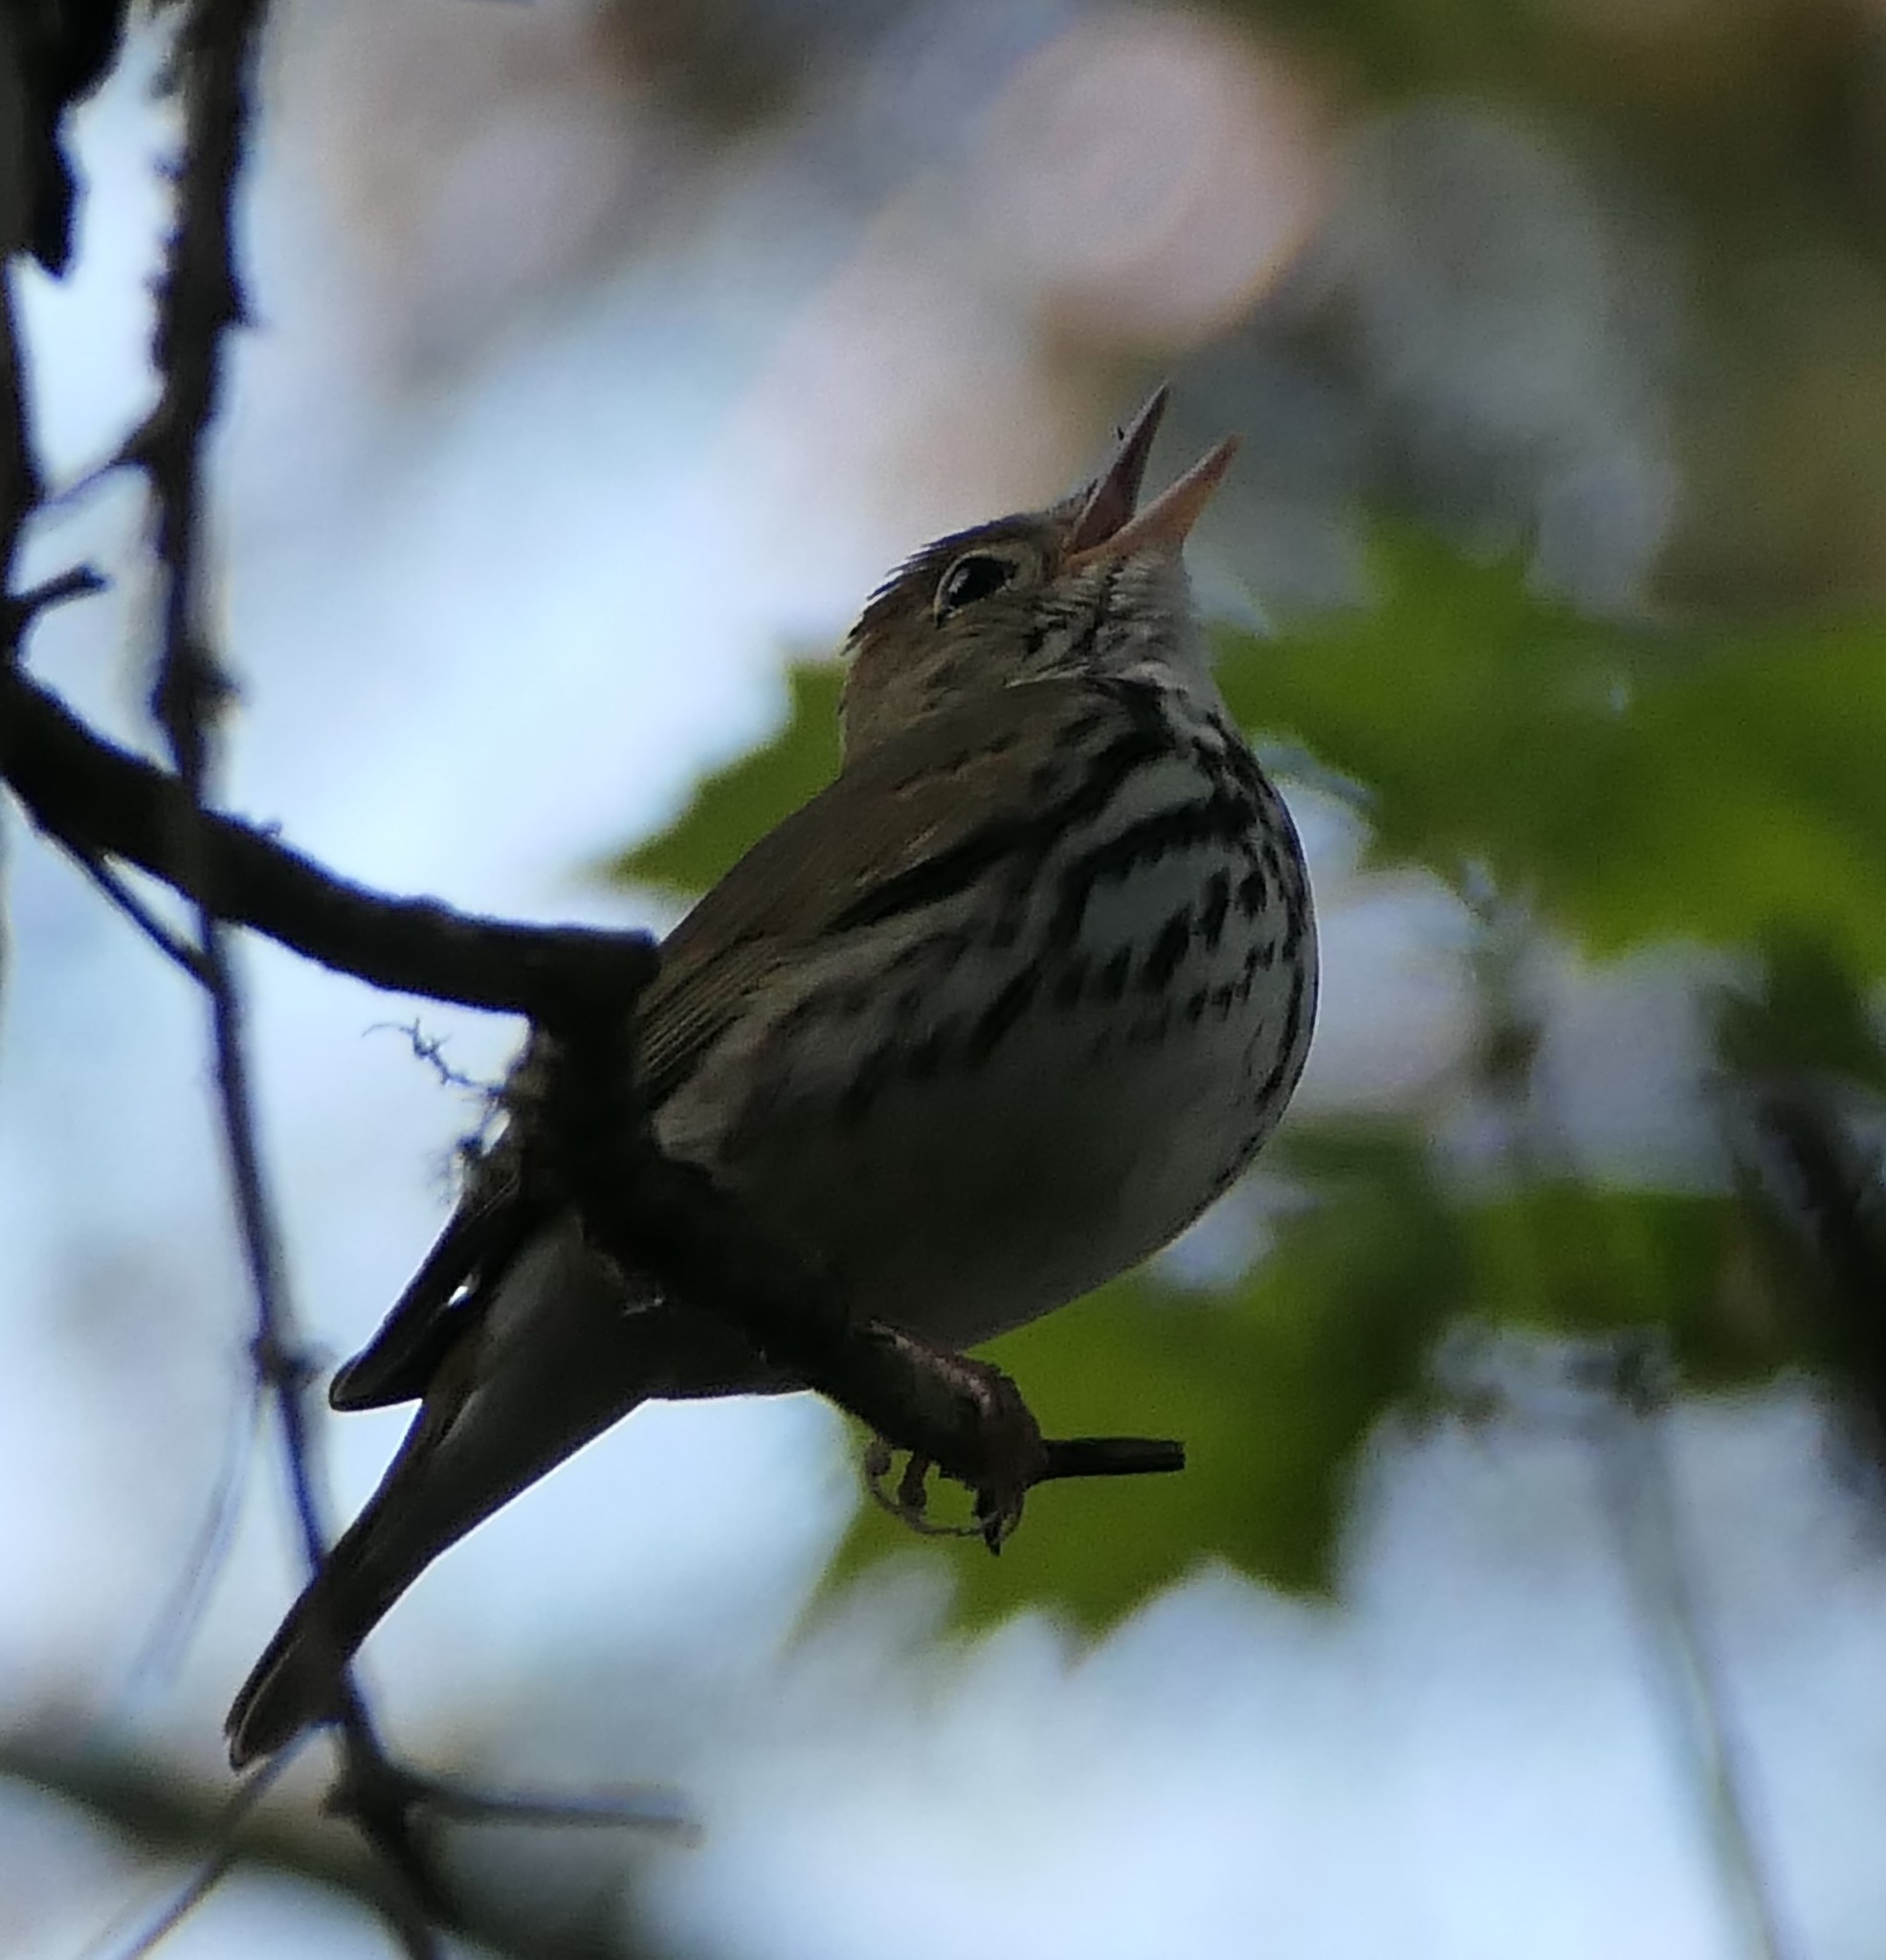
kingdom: Animalia
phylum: Chordata
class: Aves
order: Passeriformes
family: Parulidae
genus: Seiurus
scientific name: Seiurus aurocapilla
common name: Ovenbird
